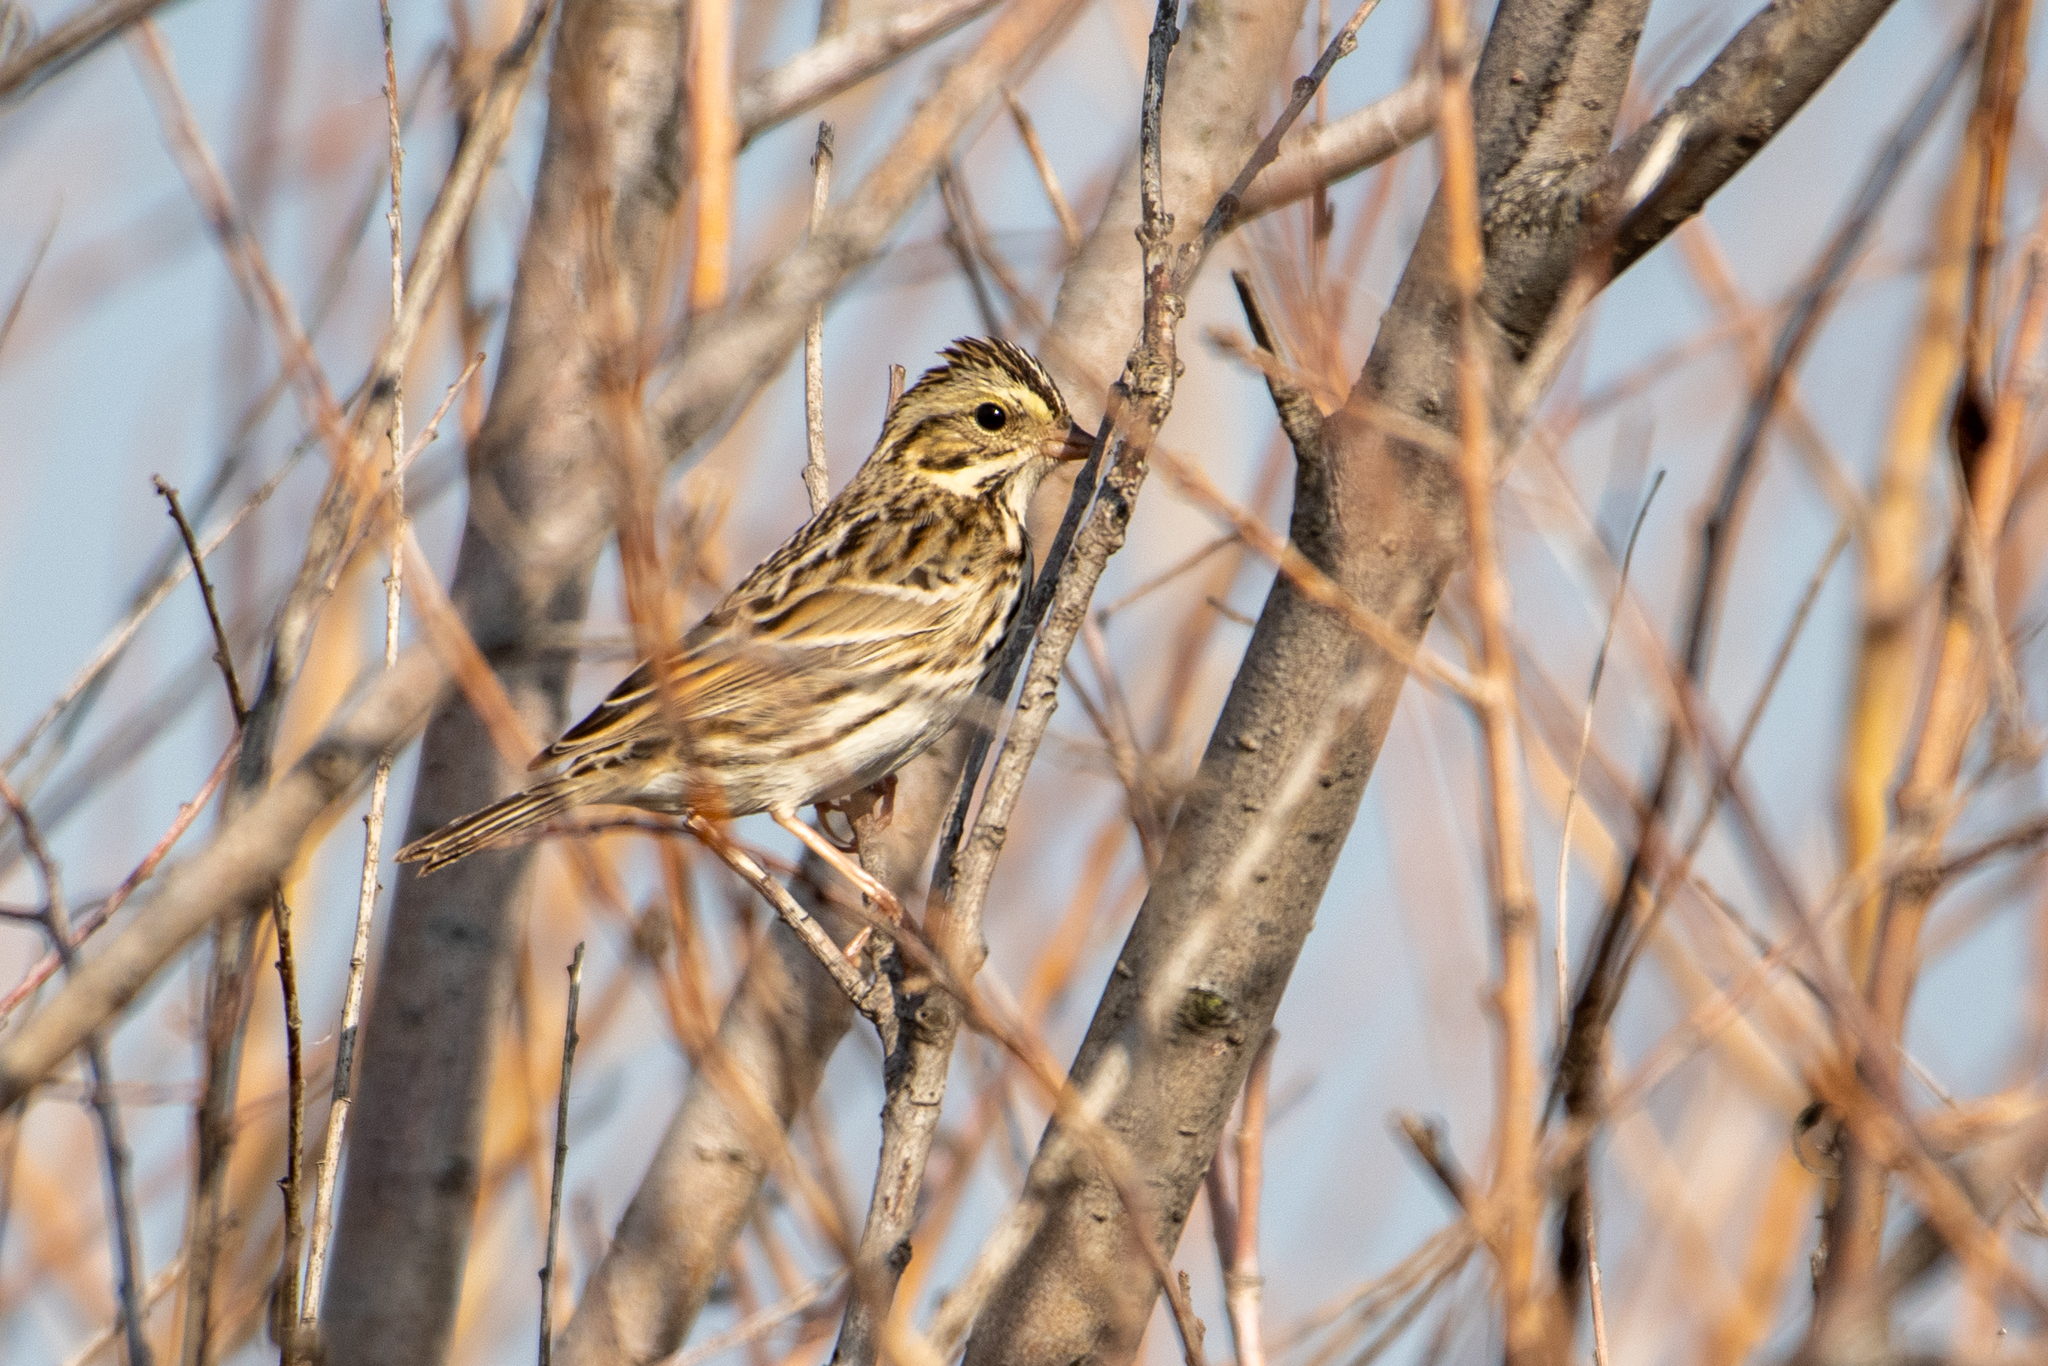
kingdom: Animalia
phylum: Chordata
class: Aves
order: Passeriformes
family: Passerellidae
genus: Passerculus
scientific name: Passerculus sandwichensis
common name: Savannah sparrow
